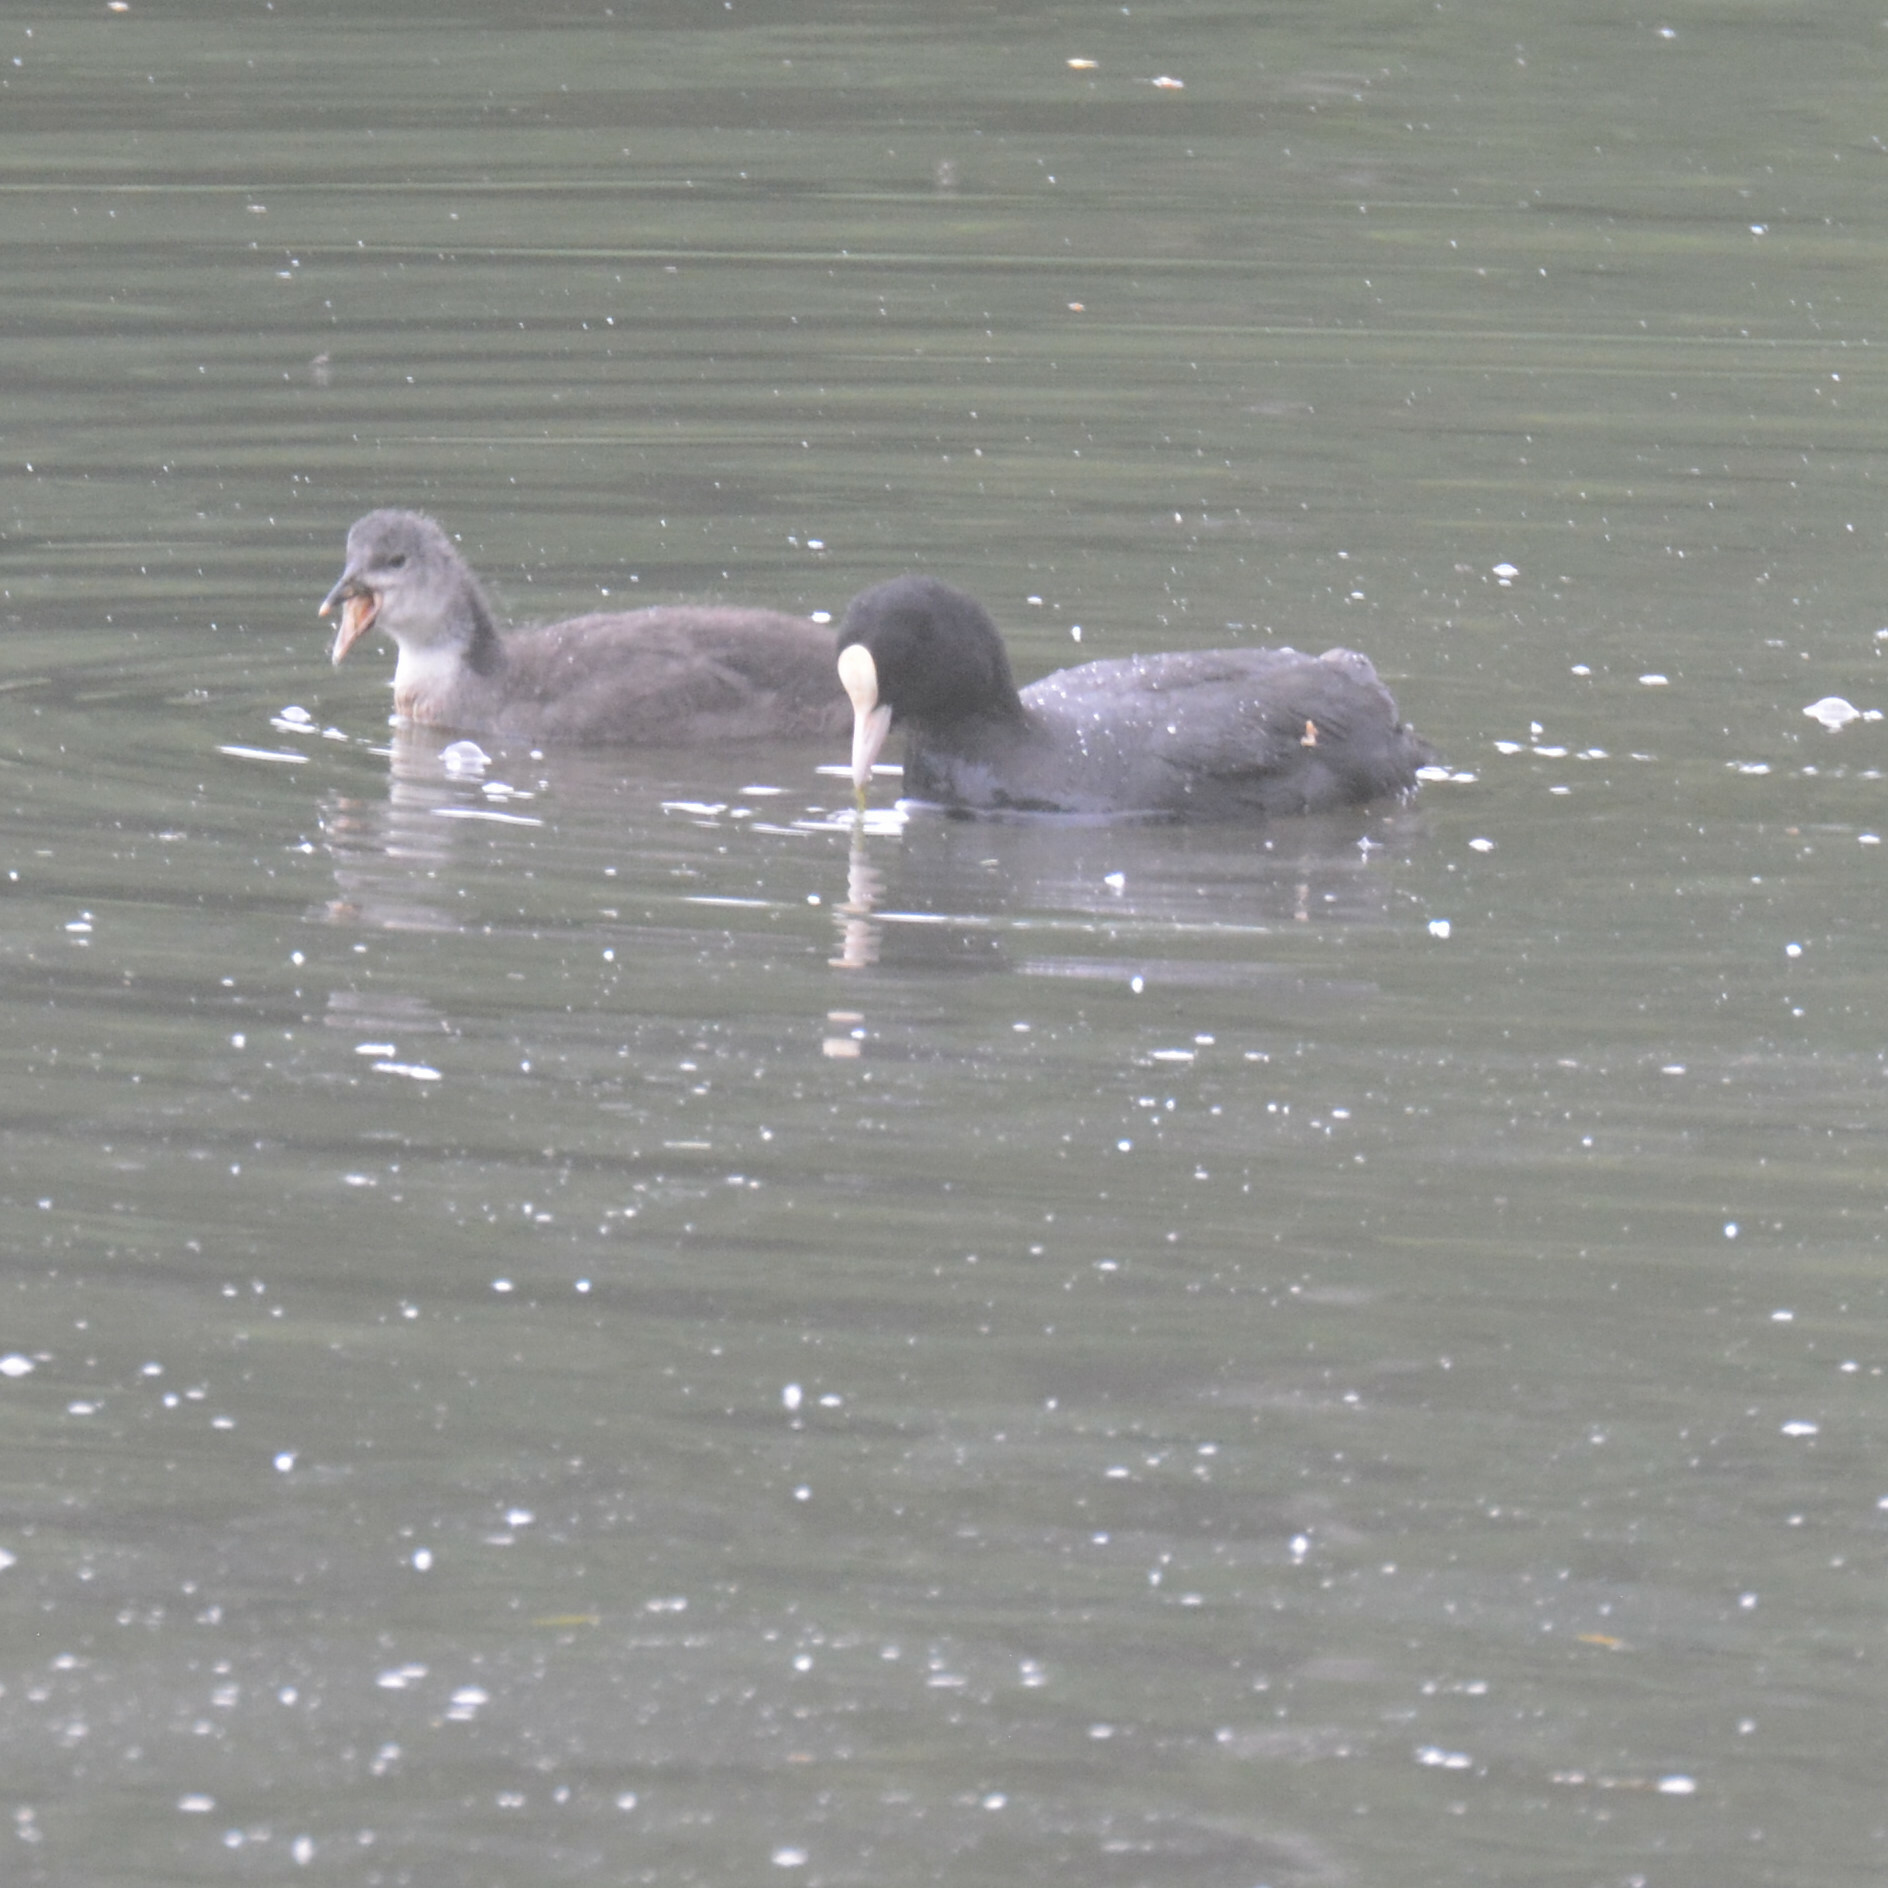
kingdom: Animalia
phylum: Chordata
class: Aves
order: Gruiformes
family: Rallidae
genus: Fulica
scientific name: Fulica atra
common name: Eurasian coot
